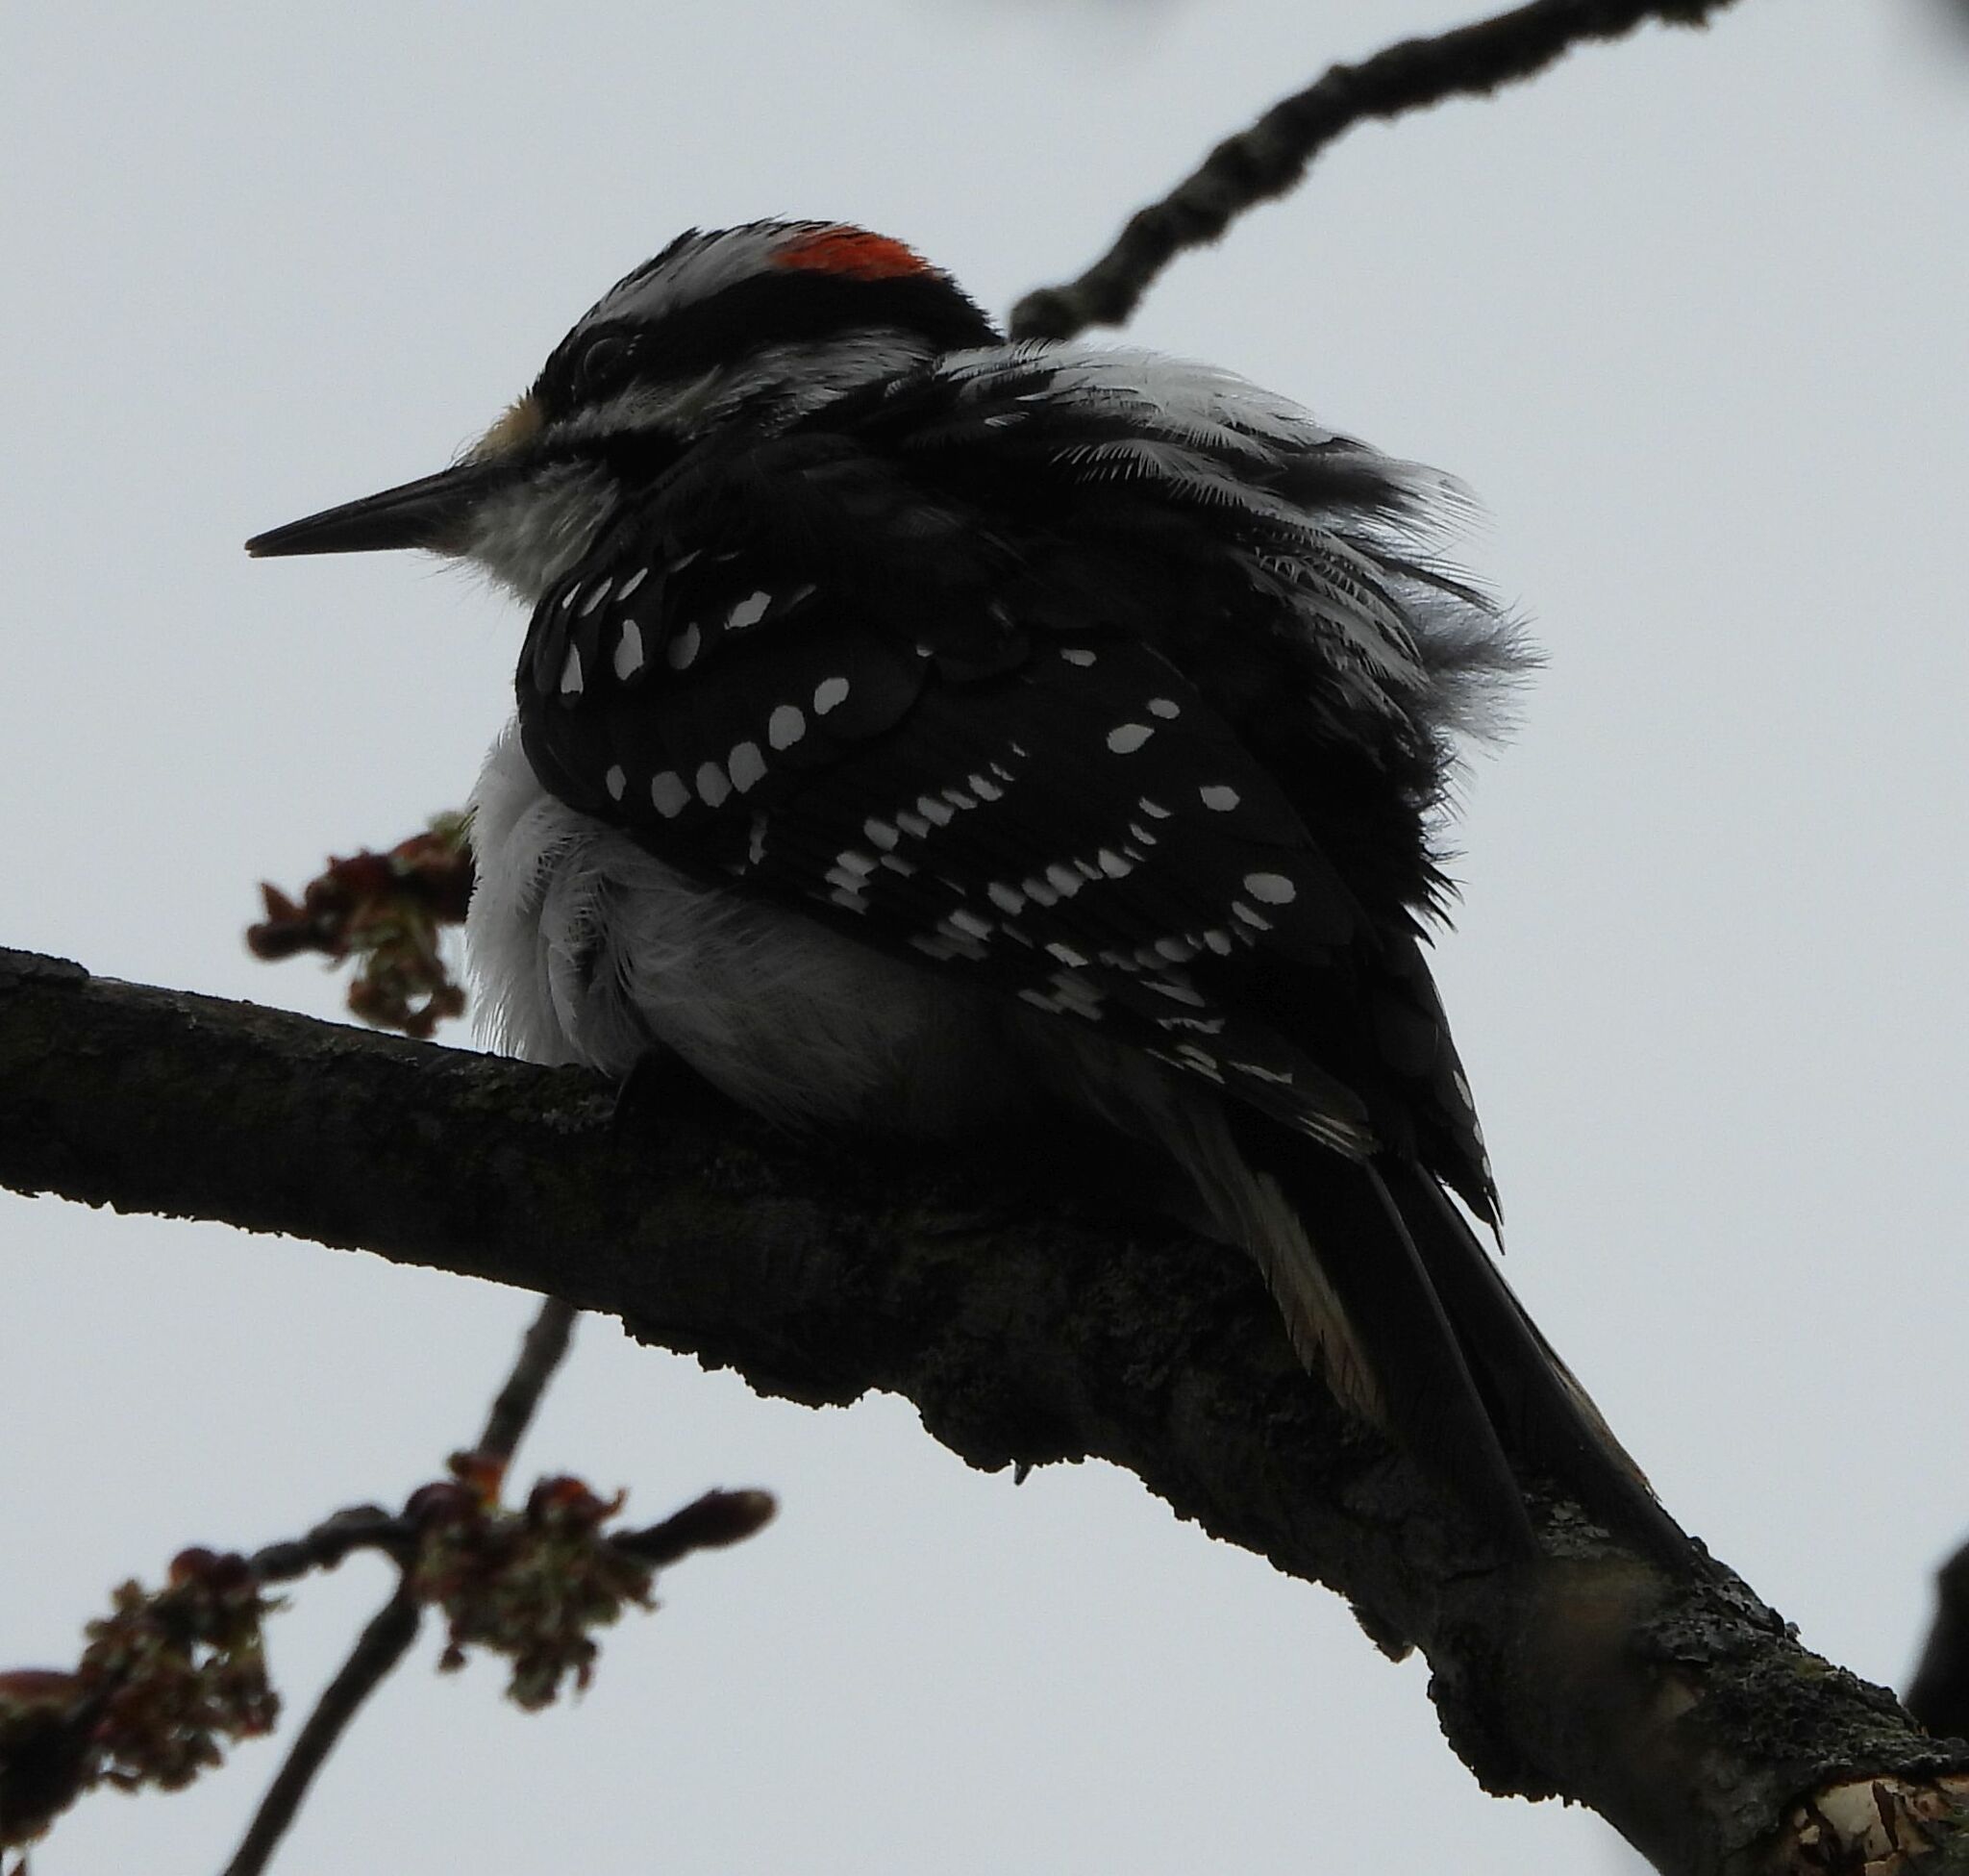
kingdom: Animalia
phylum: Chordata
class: Aves
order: Piciformes
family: Picidae
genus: Leuconotopicus
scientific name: Leuconotopicus villosus
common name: Hairy woodpecker
